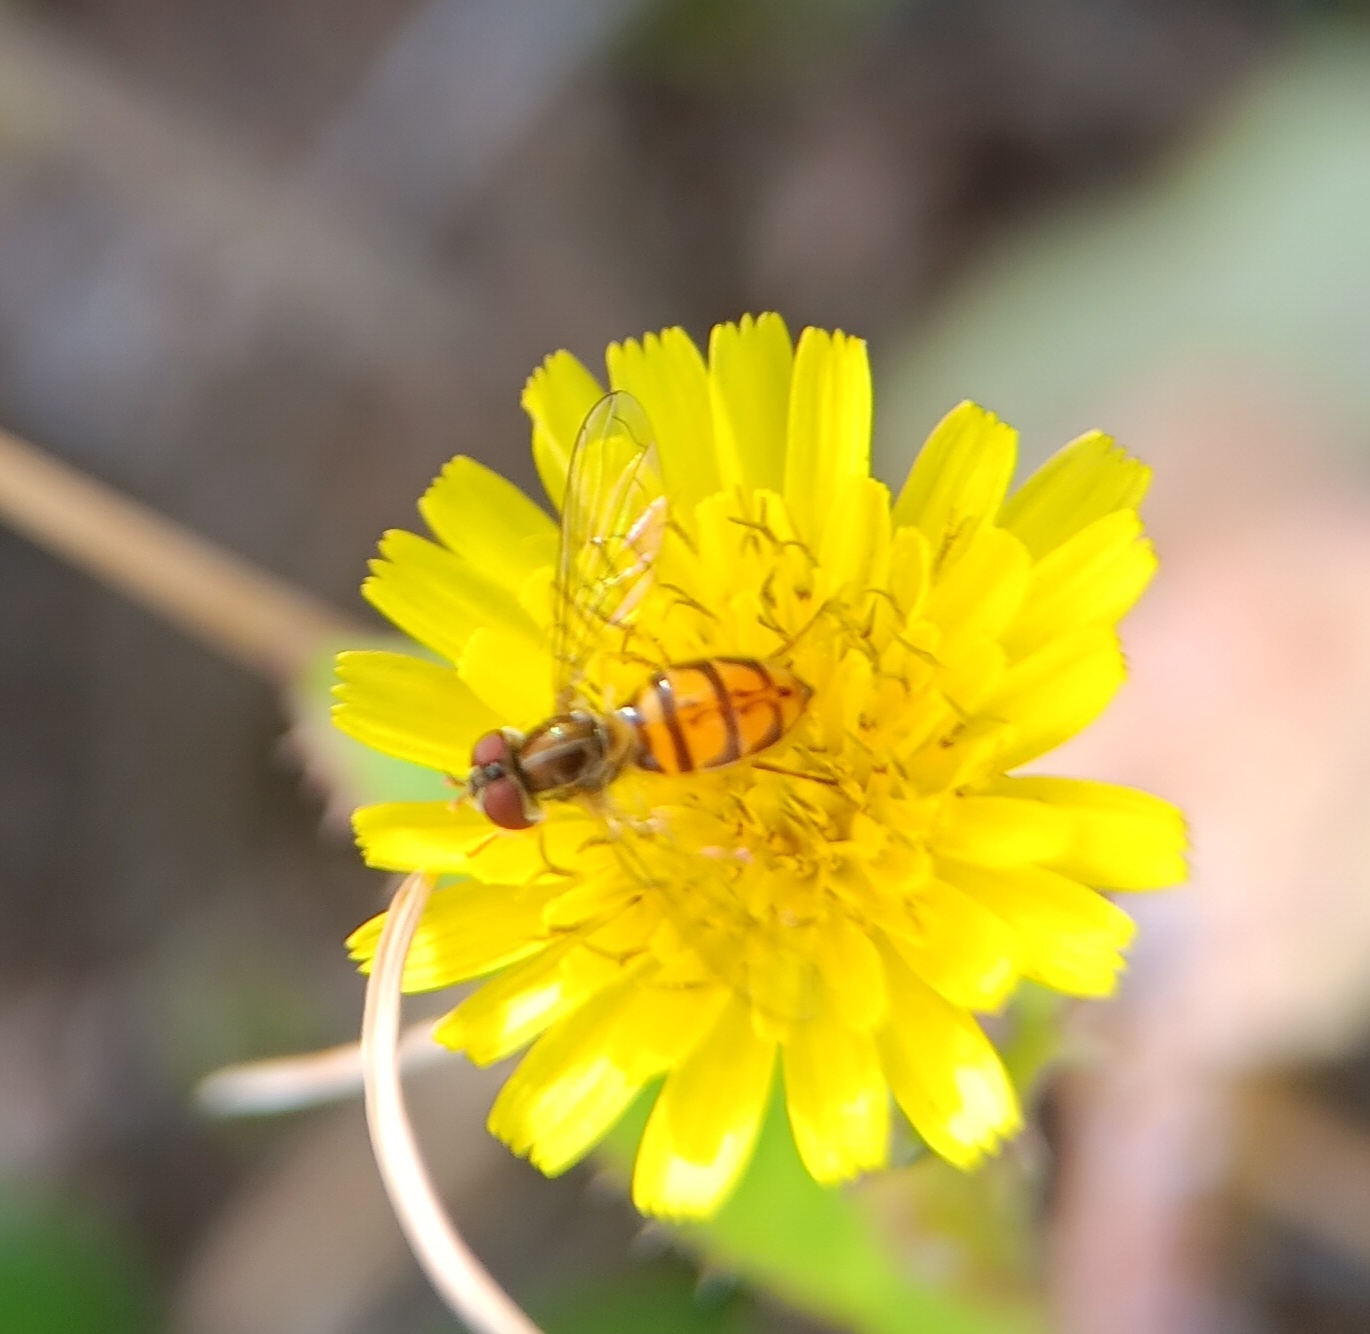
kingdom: Animalia
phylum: Arthropoda
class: Insecta
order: Diptera
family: Syrphidae
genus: Toxomerus
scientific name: Toxomerus marginatus
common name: Syrphid fly
